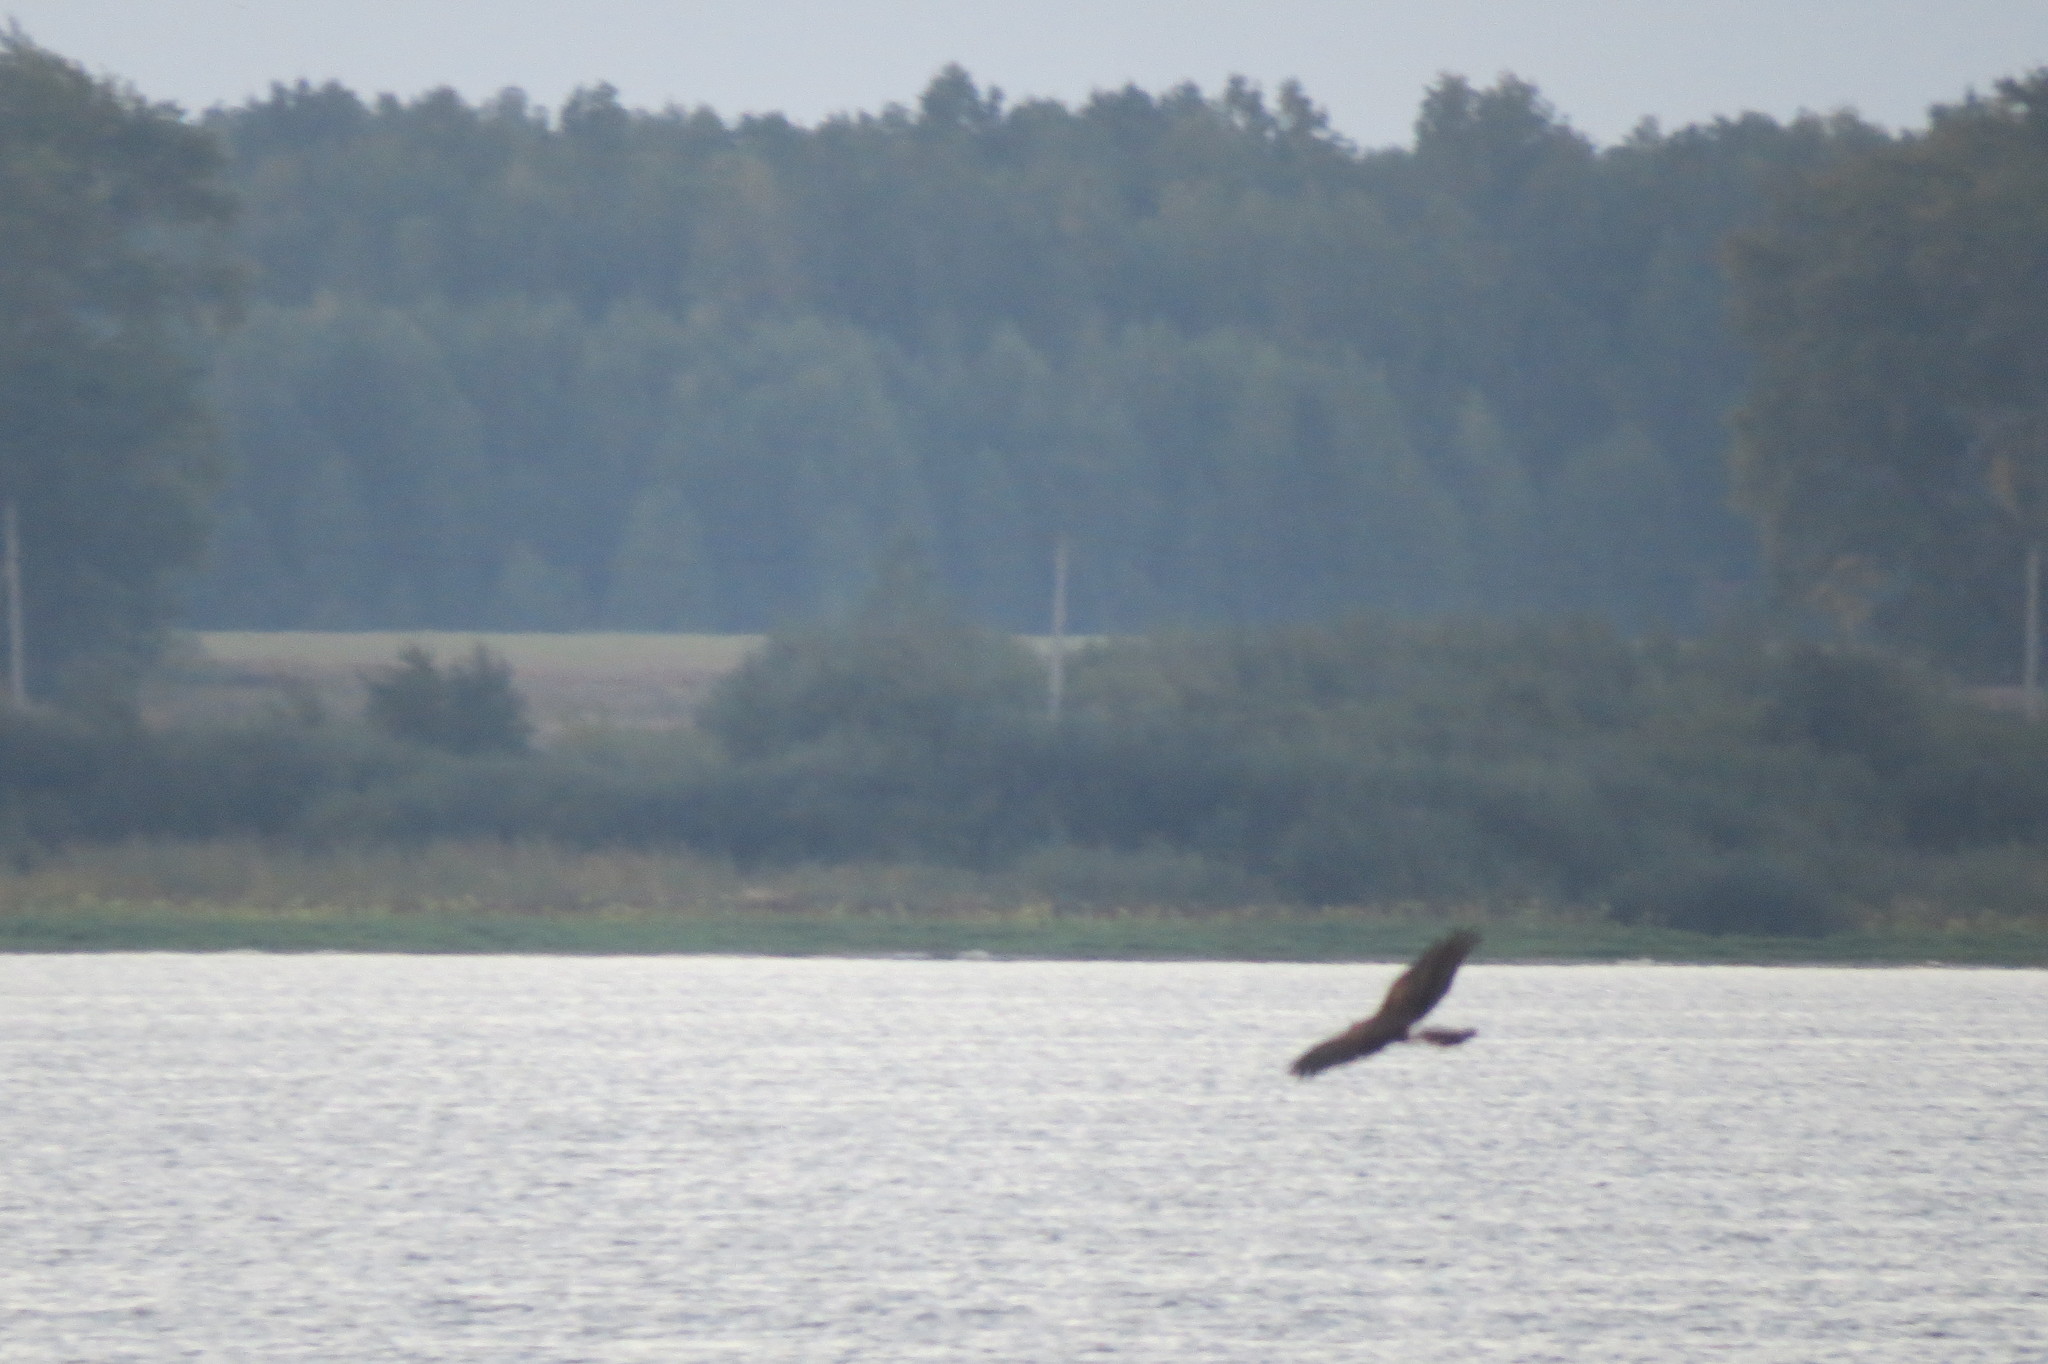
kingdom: Animalia
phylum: Chordata
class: Aves
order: Accipitriformes
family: Accipitridae
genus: Circus
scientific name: Circus cyaneus
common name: Hen harrier
